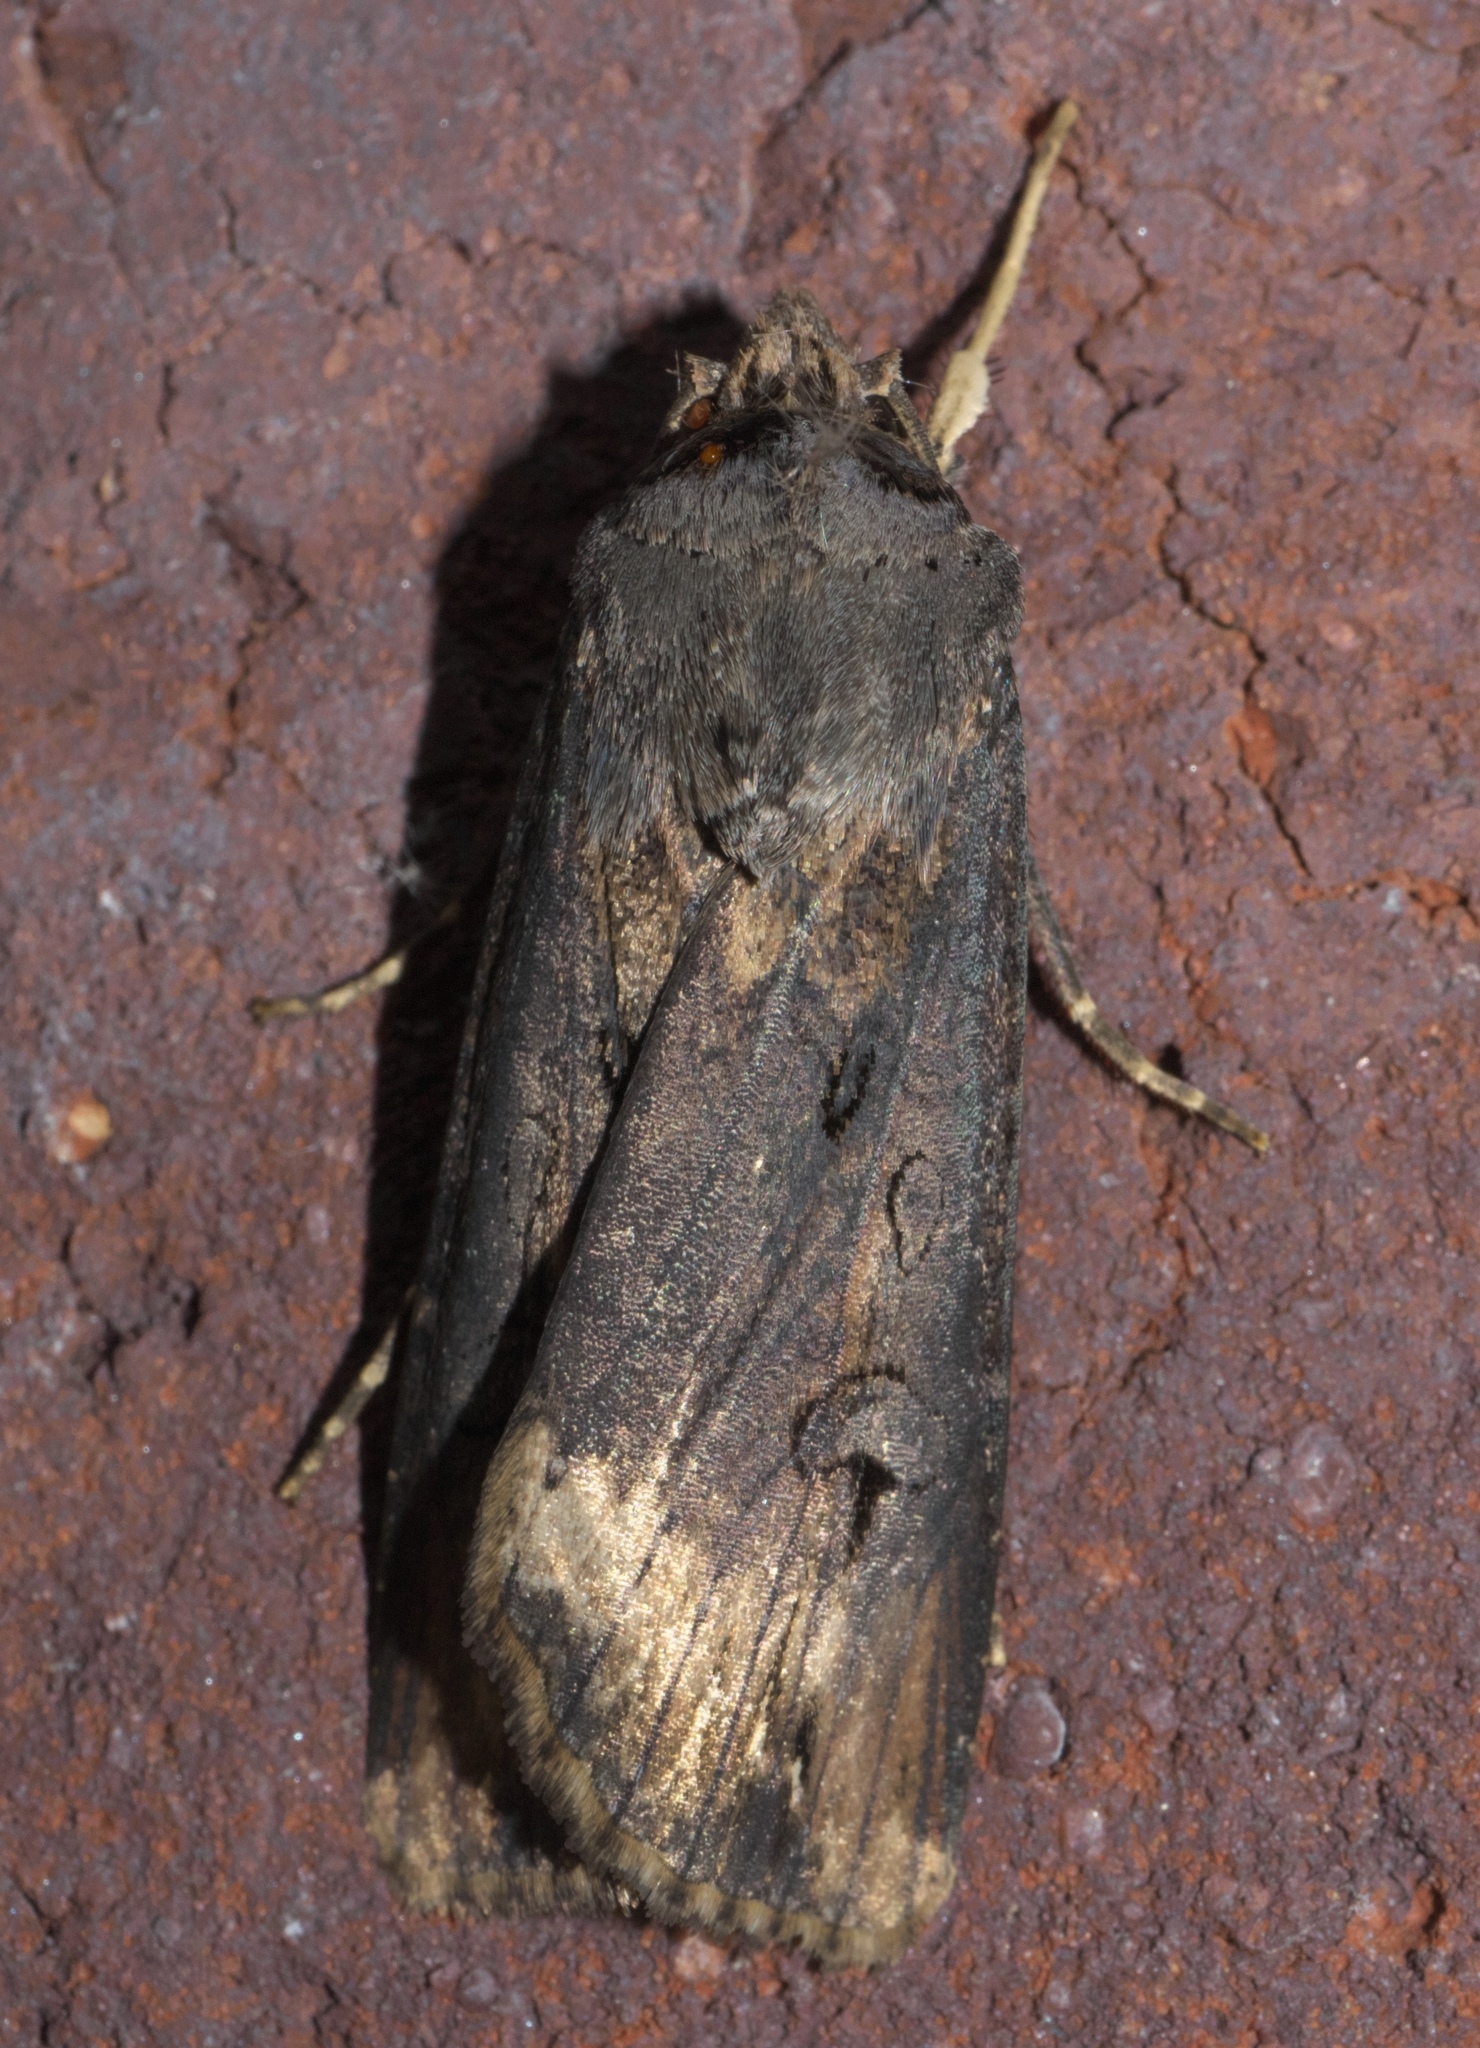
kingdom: Animalia
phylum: Arthropoda
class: Insecta
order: Lepidoptera
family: Noctuidae
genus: Agrotis
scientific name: Agrotis ipsilon
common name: Dark sword-grass
